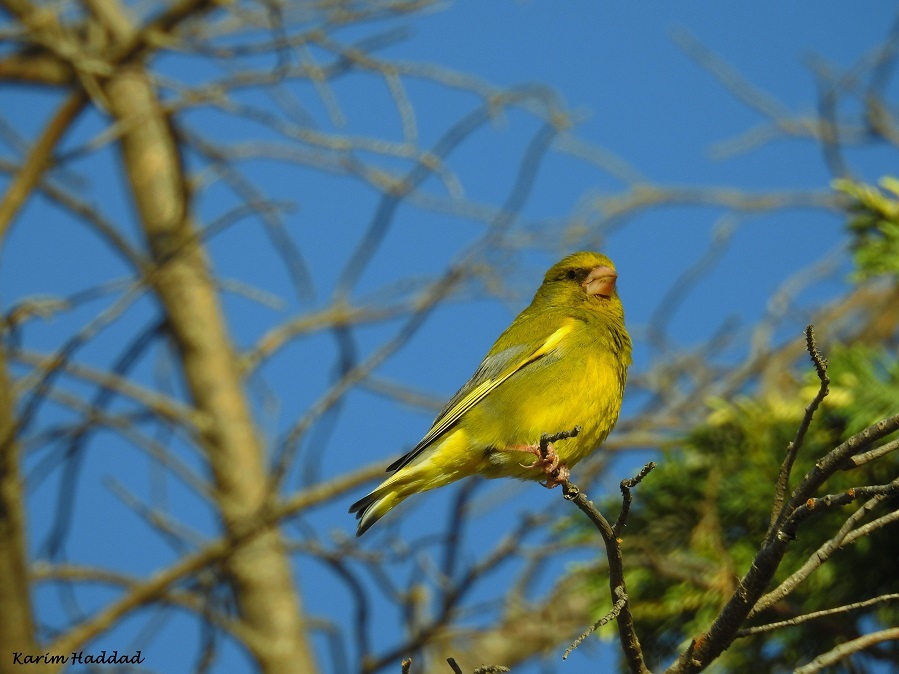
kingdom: Plantae
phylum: Tracheophyta
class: Liliopsida
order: Poales
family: Poaceae
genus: Chloris
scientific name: Chloris chloris
